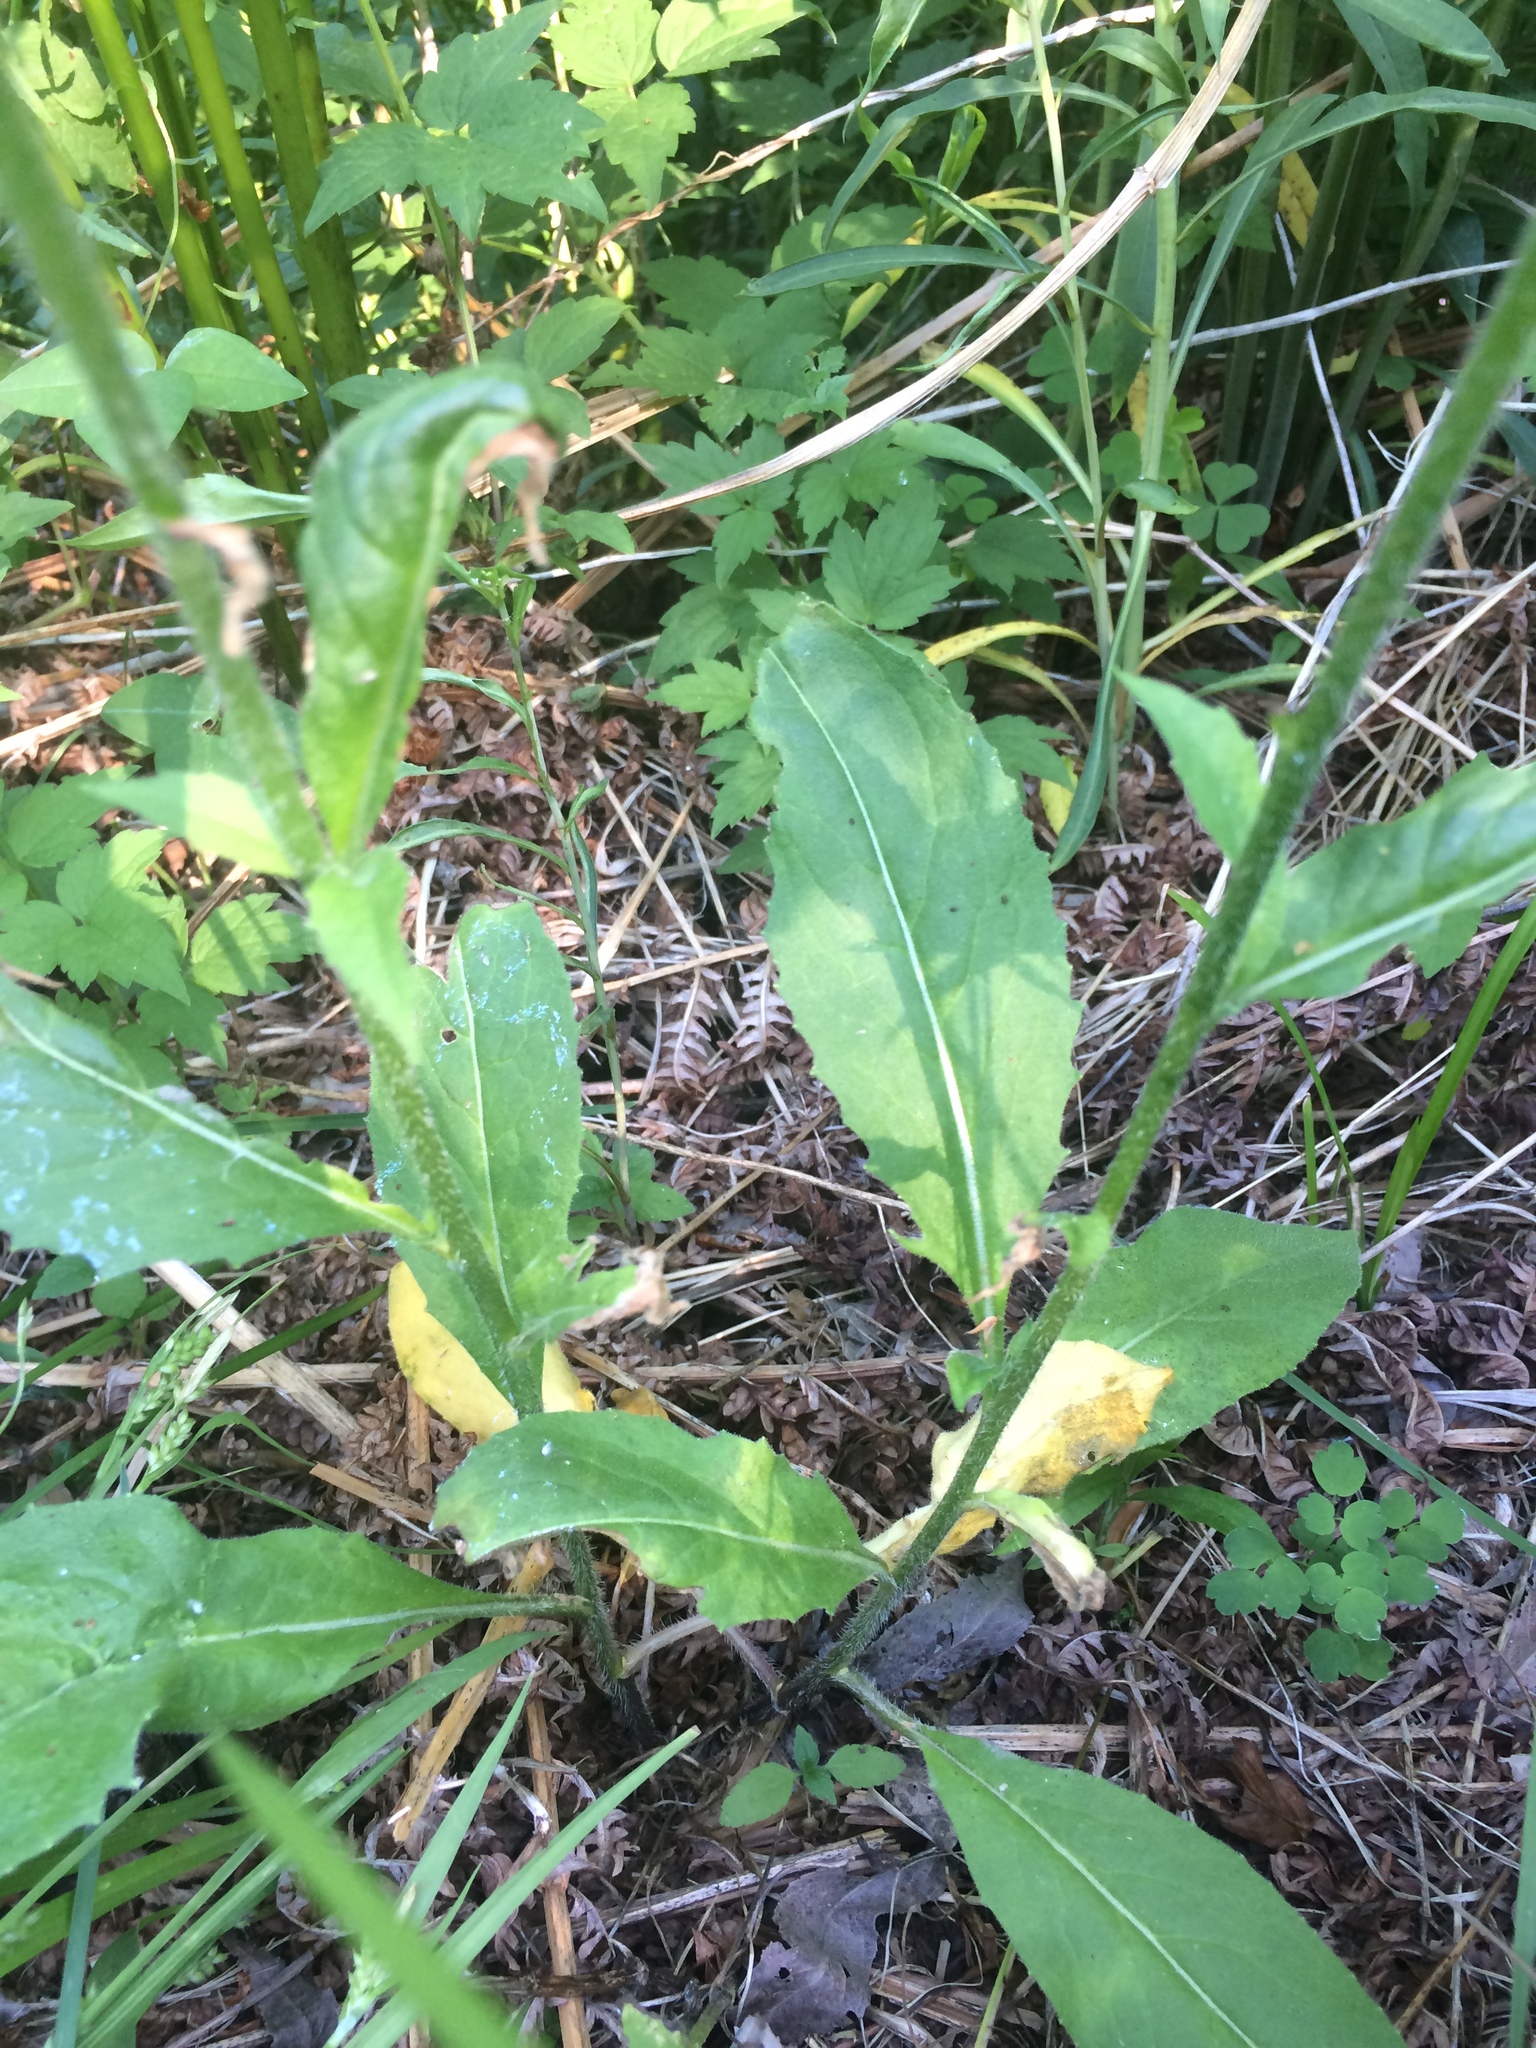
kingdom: Plantae
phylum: Tracheophyta
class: Magnoliopsida
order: Brassicales
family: Brassicaceae
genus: Hesperis
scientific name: Hesperis matronalis
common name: Dame's-violet
